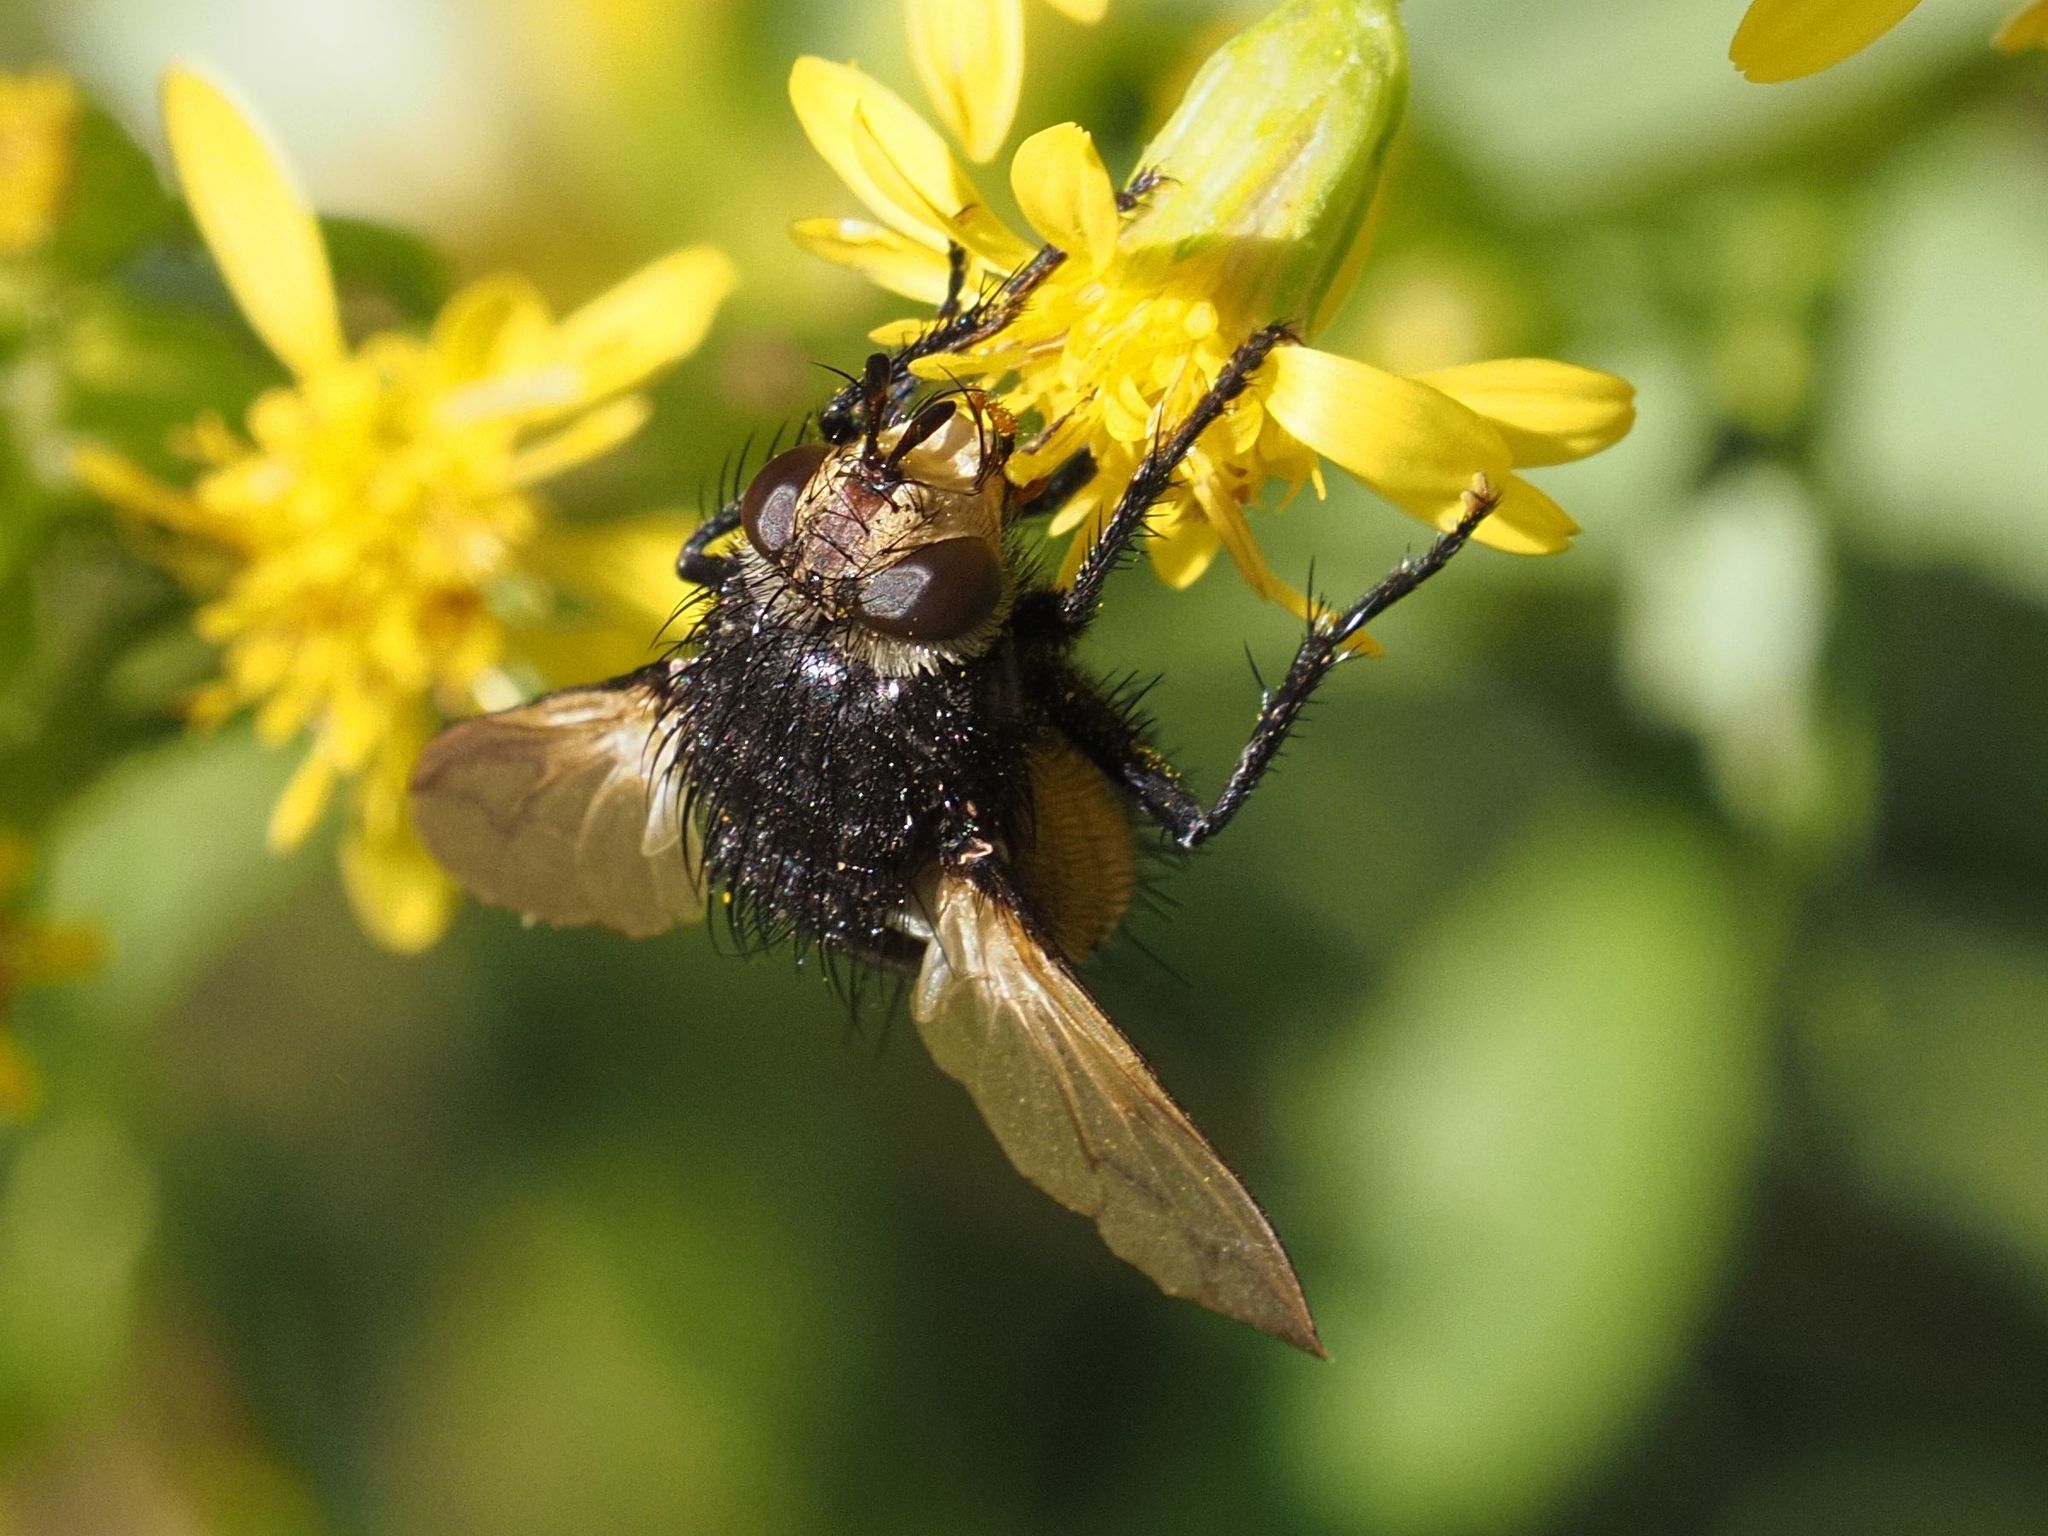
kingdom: Animalia
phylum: Arthropoda
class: Insecta
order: Diptera
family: Tachinidae
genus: Nowickia
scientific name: Nowickia ferox
